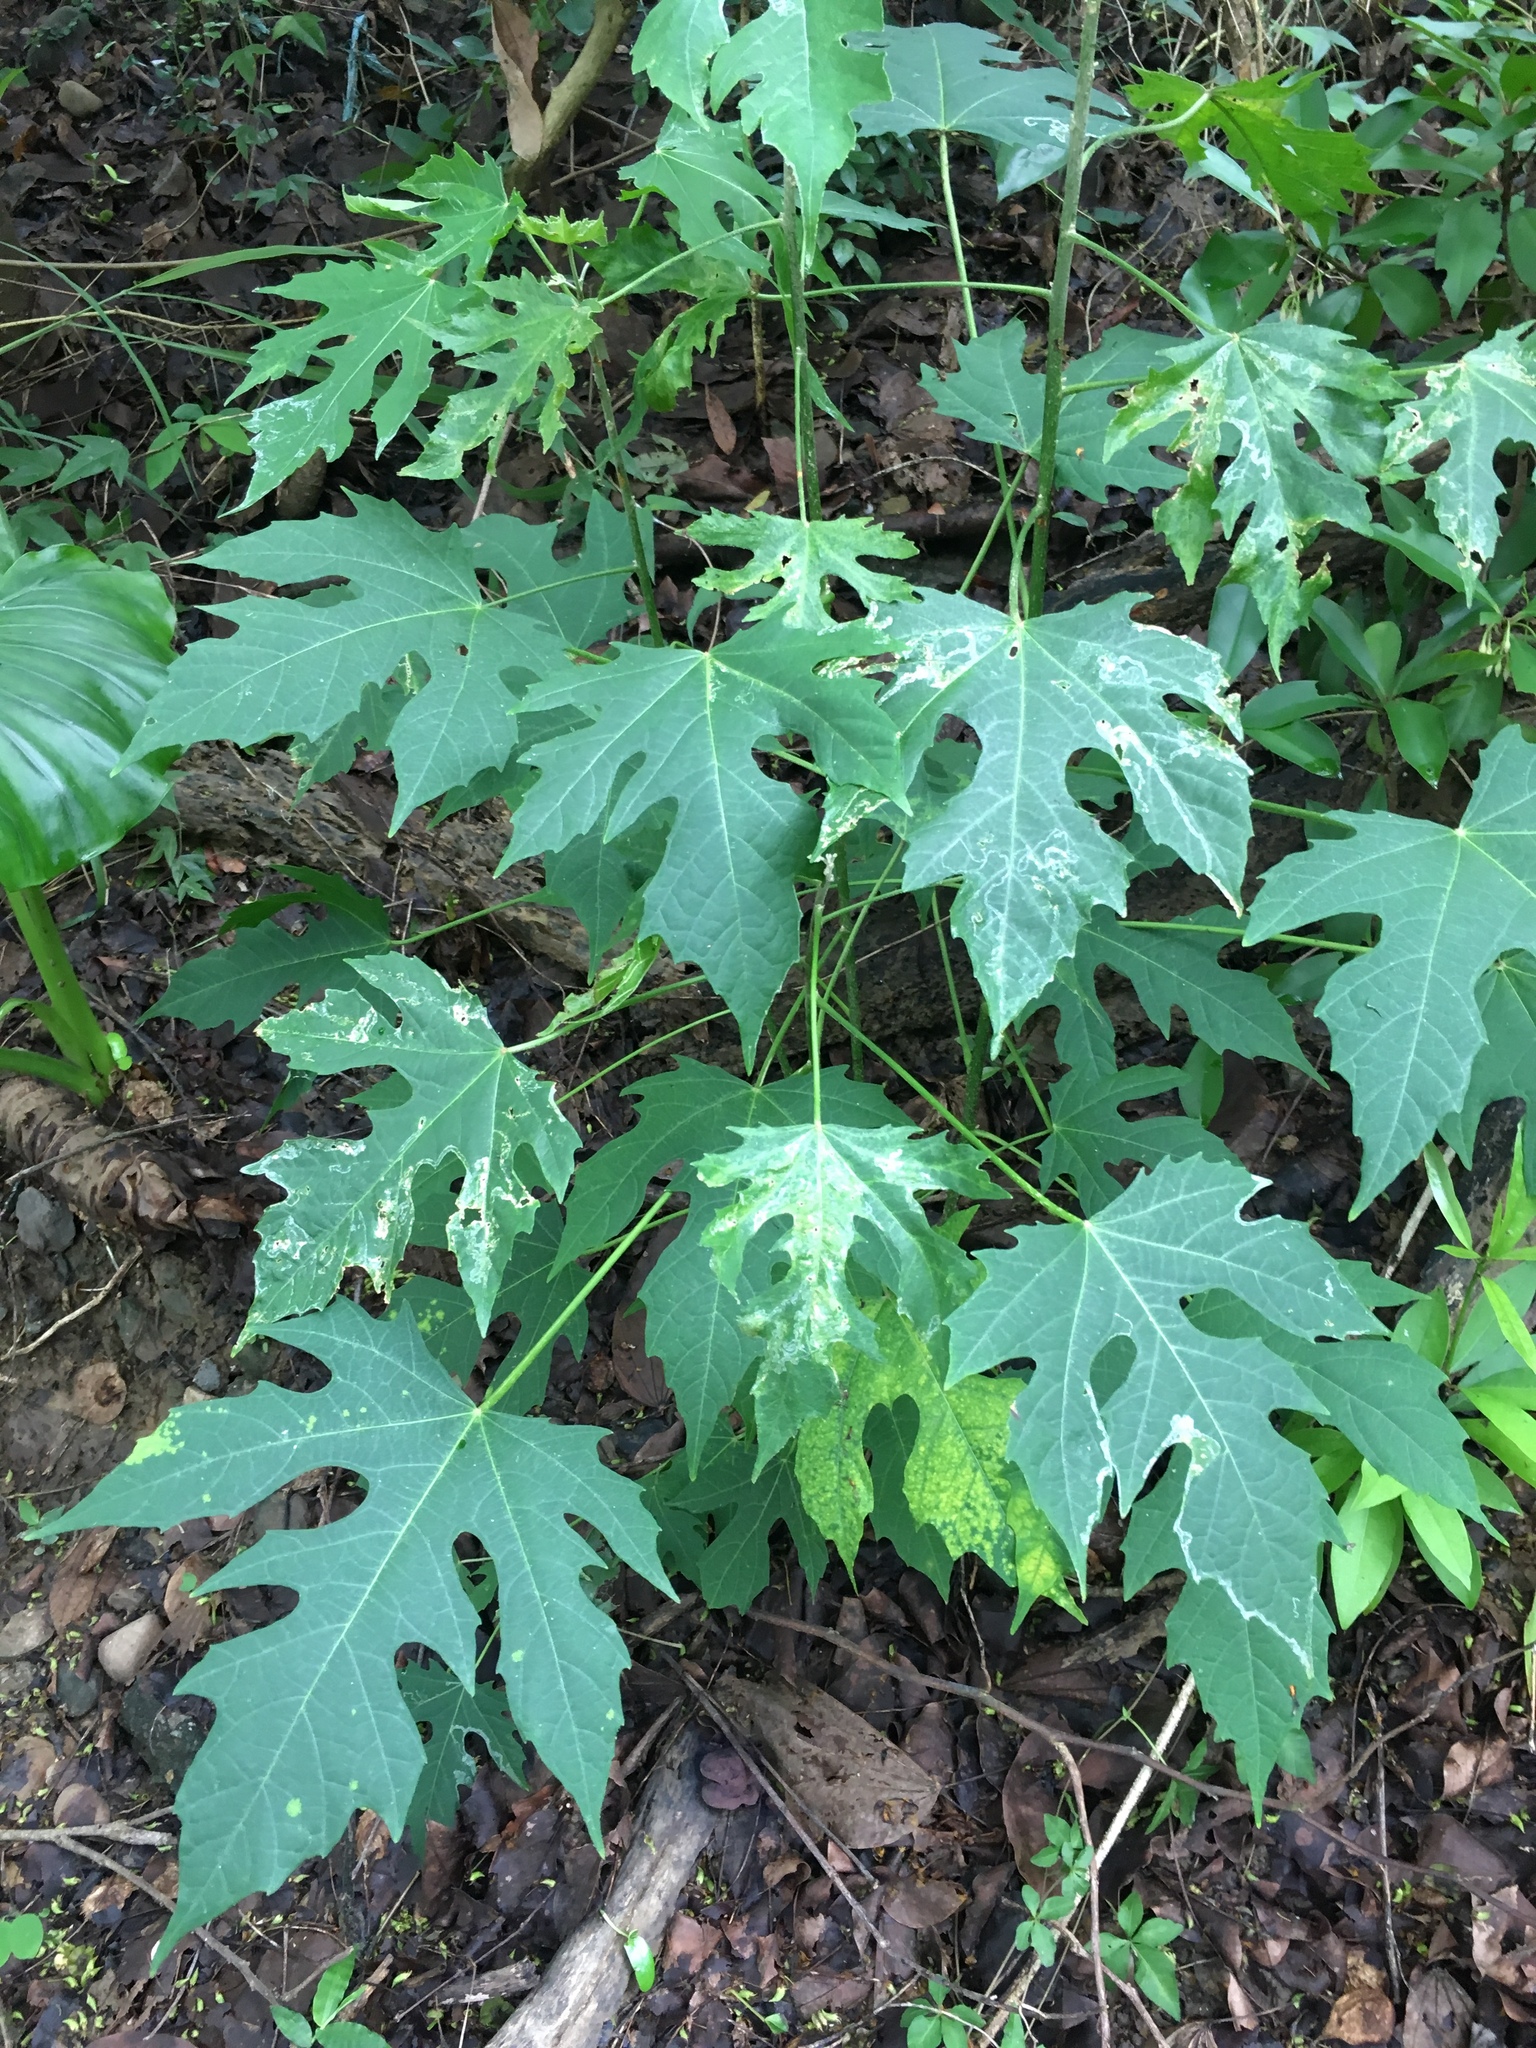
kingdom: Plantae
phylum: Tracheophyta
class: Magnoliopsida
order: Malpighiales
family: Euphorbiaceae
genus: Melanolepis
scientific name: Melanolepis multiglandulosa
